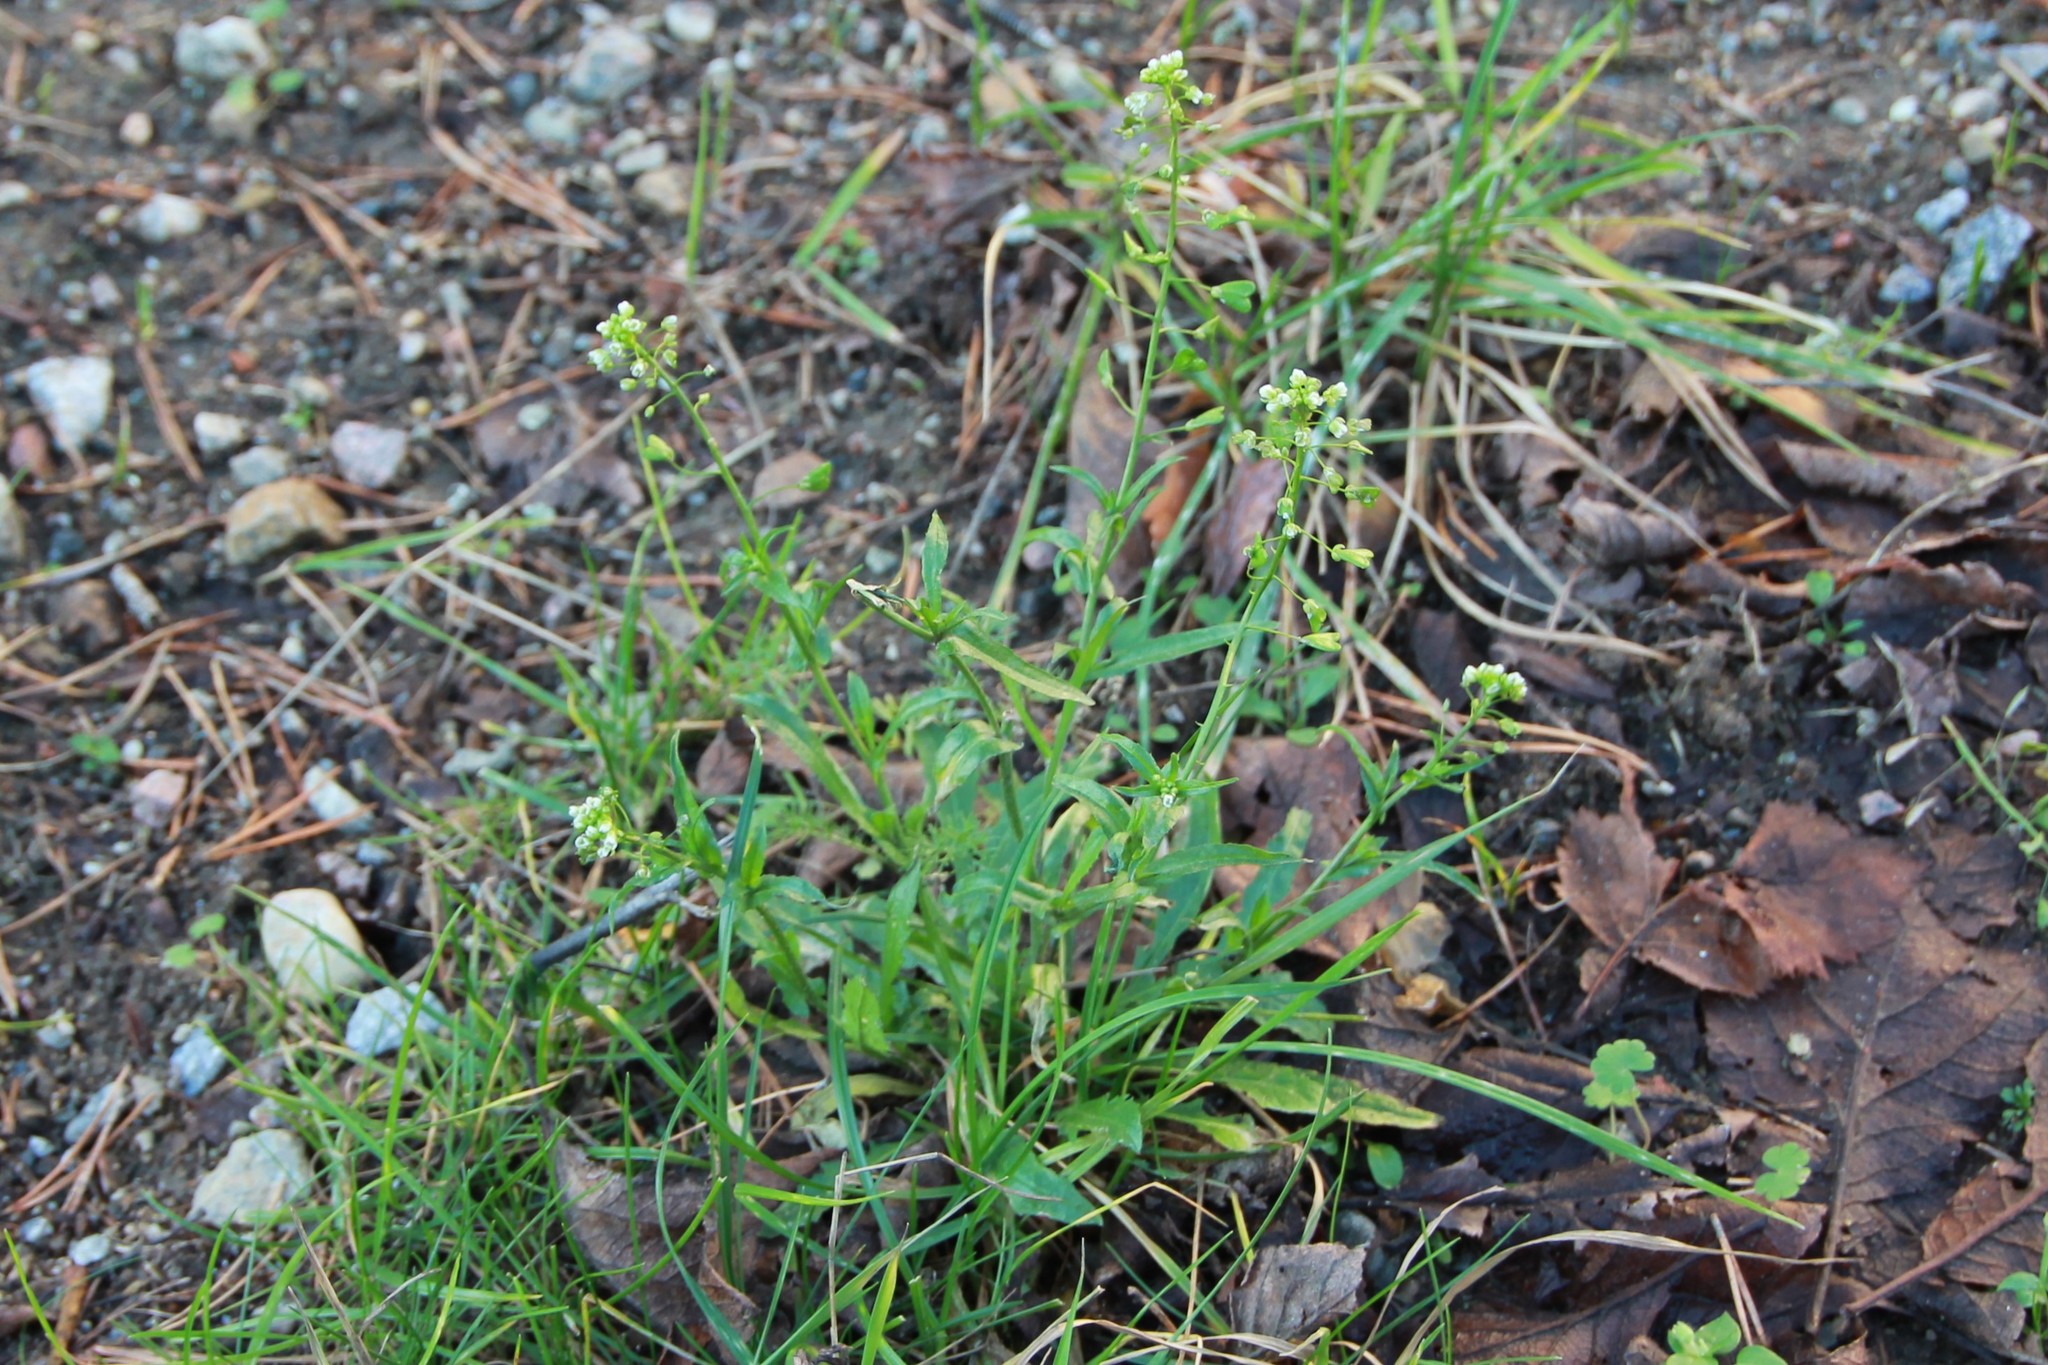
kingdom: Plantae
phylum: Tracheophyta
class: Magnoliopsida
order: Brassicales
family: Brassicaceae
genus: Capsella
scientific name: Capsella bursa-pastoris
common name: Shepherd's purse
